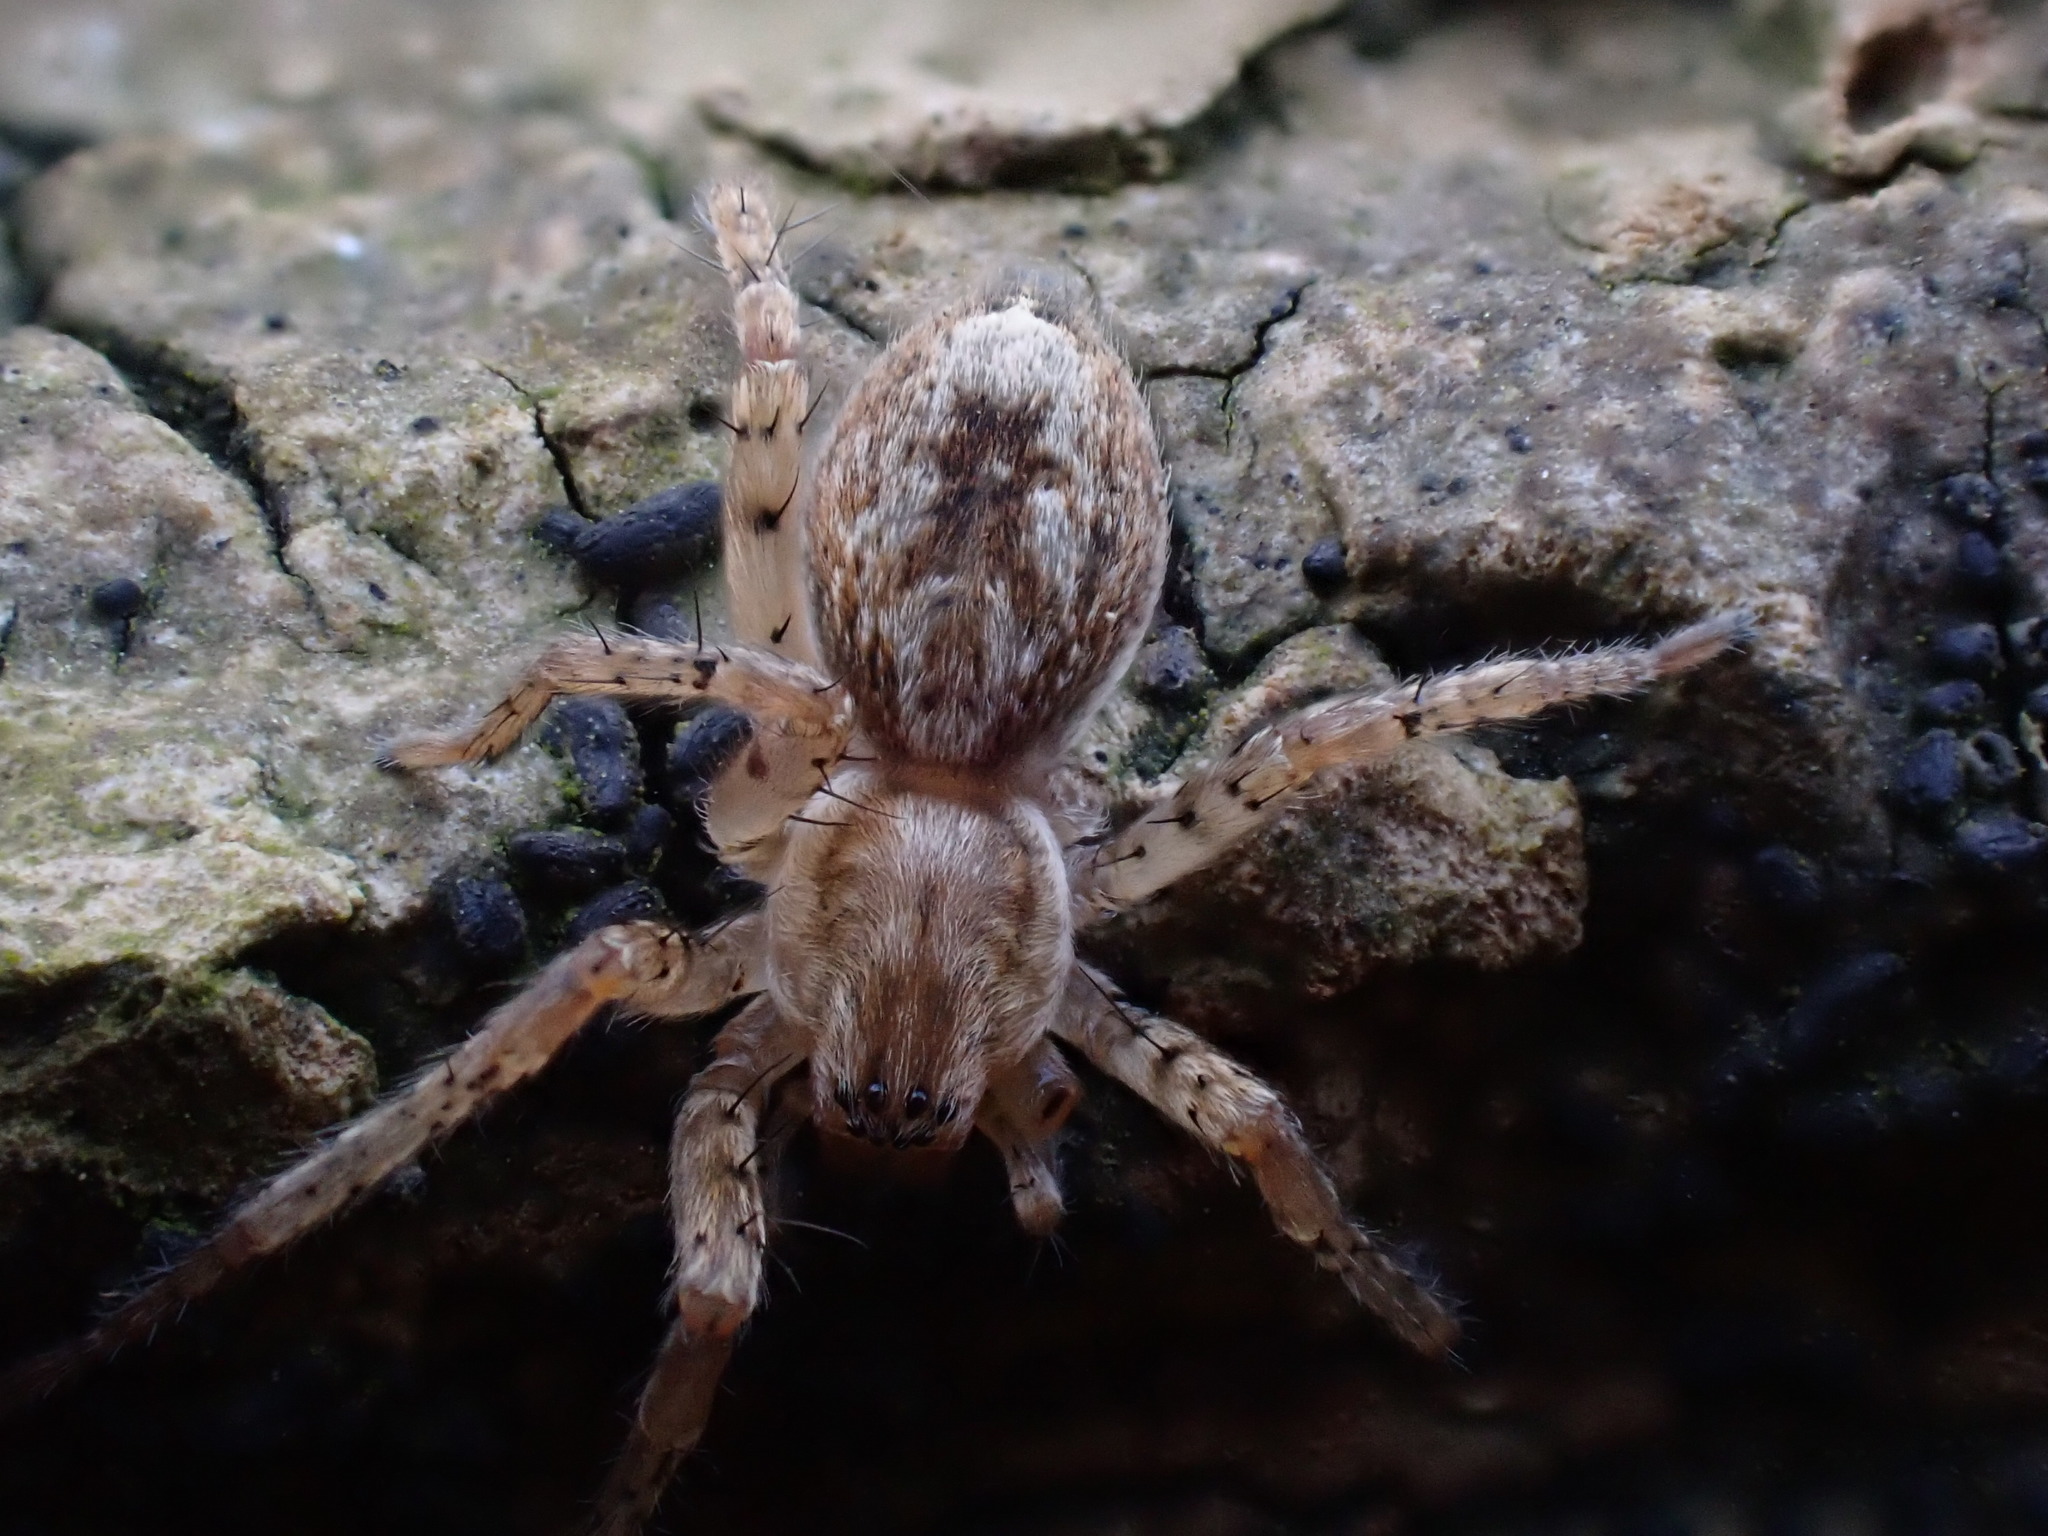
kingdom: Animalia
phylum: Arthropoda
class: Arachnida
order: Araneae
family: Anyphaenidae
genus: Anyphaena
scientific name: Anyphaena accentuata
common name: Buzzing spider
